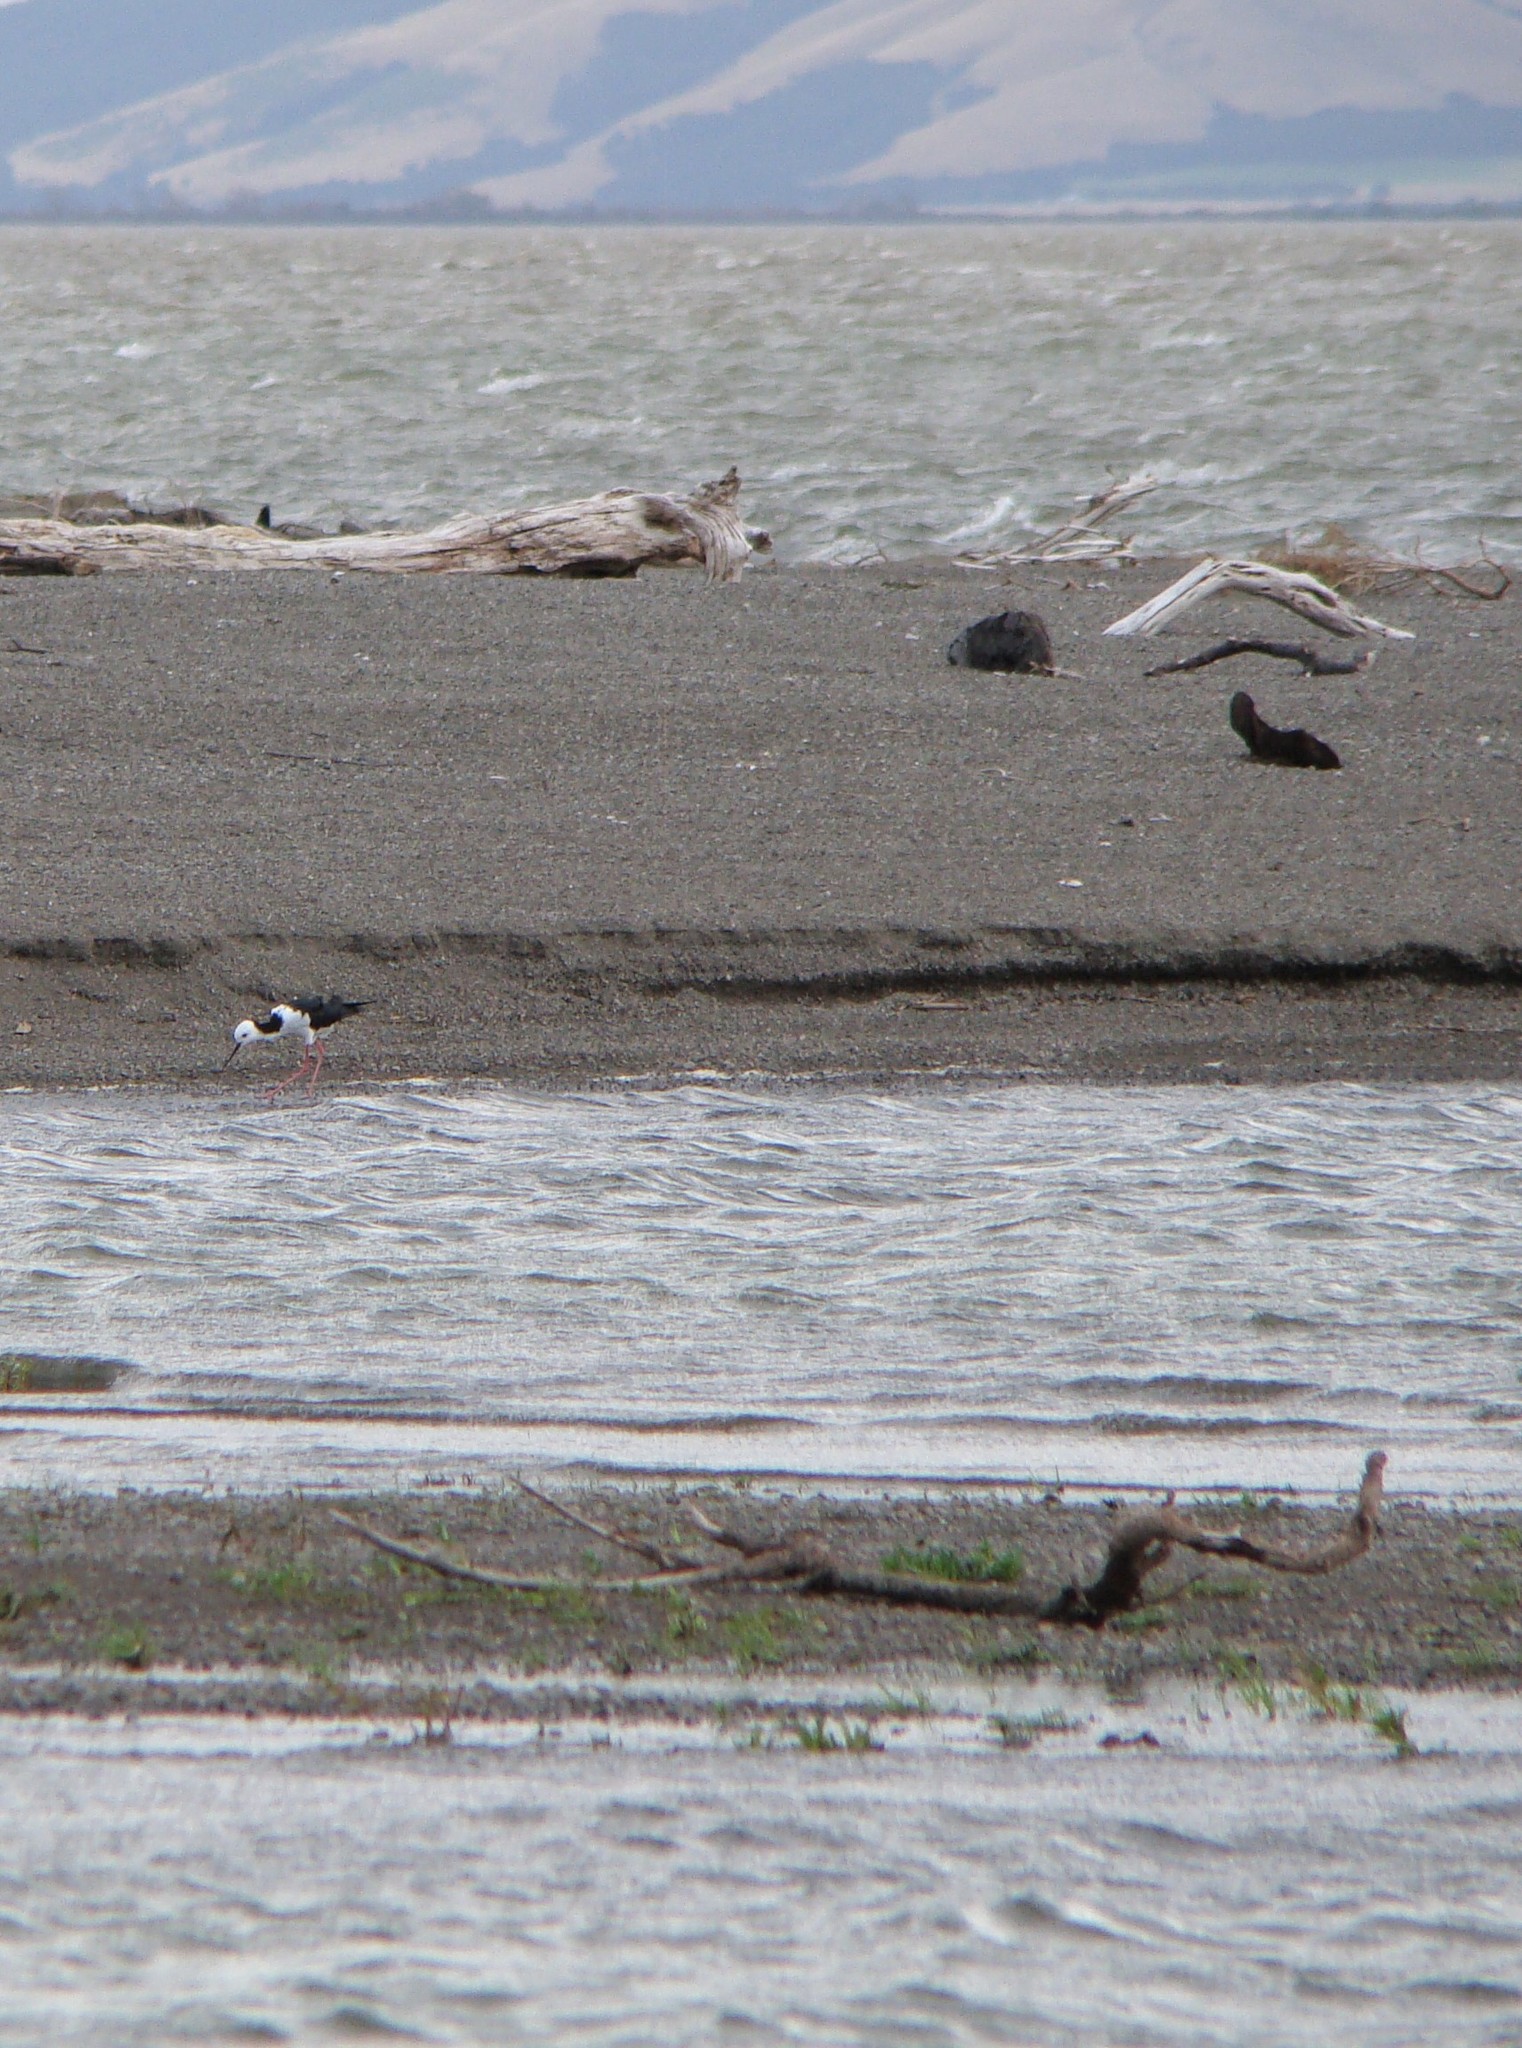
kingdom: Animalia
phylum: Chordata
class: Aves
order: Charadriiformes
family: Recurvirostridae
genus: Himantopus
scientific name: Himantopus leucocephalus
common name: White-headed stilt
